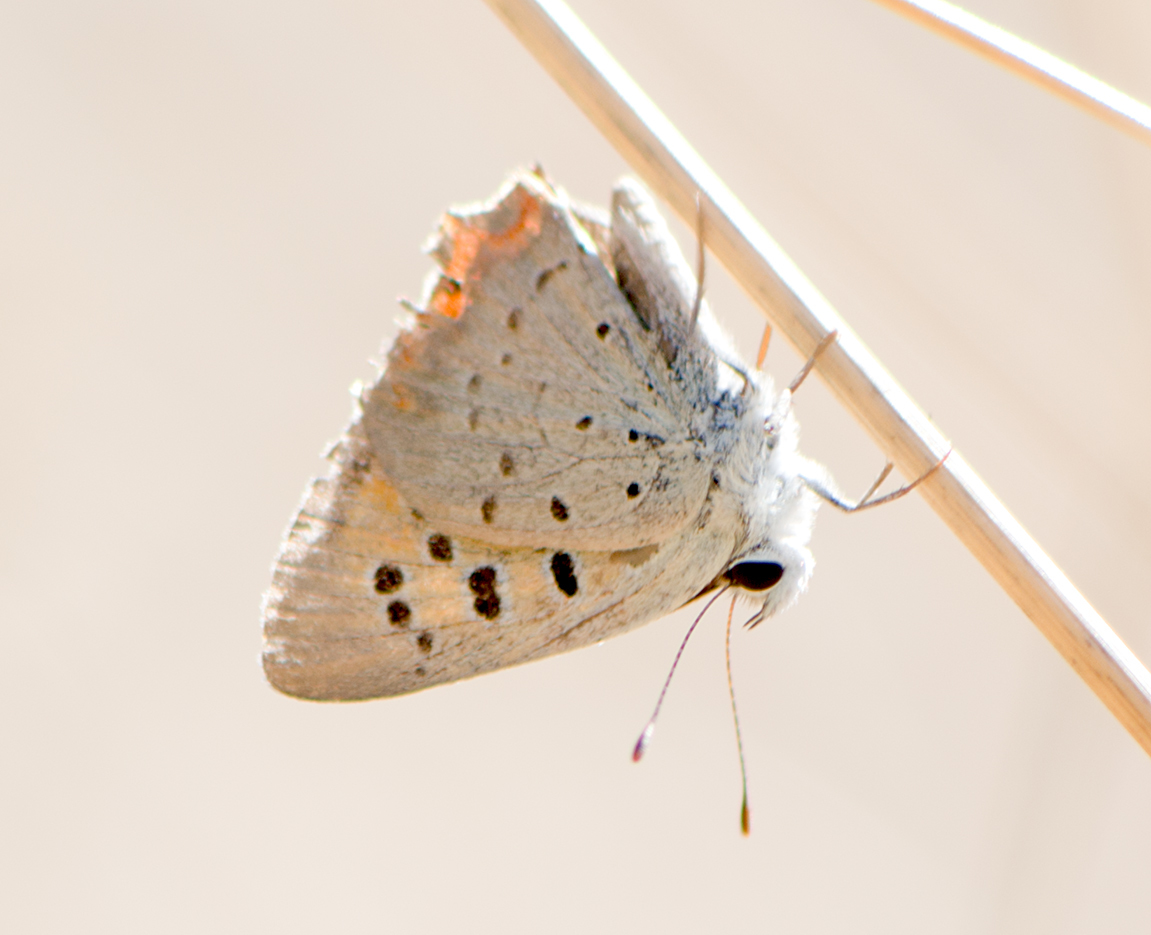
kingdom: Animalia
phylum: Arthropoda
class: Insecta
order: Lepidoptera
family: Lycaenidae
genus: Lycaena
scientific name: Lycaena phlaeas
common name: Small copper
